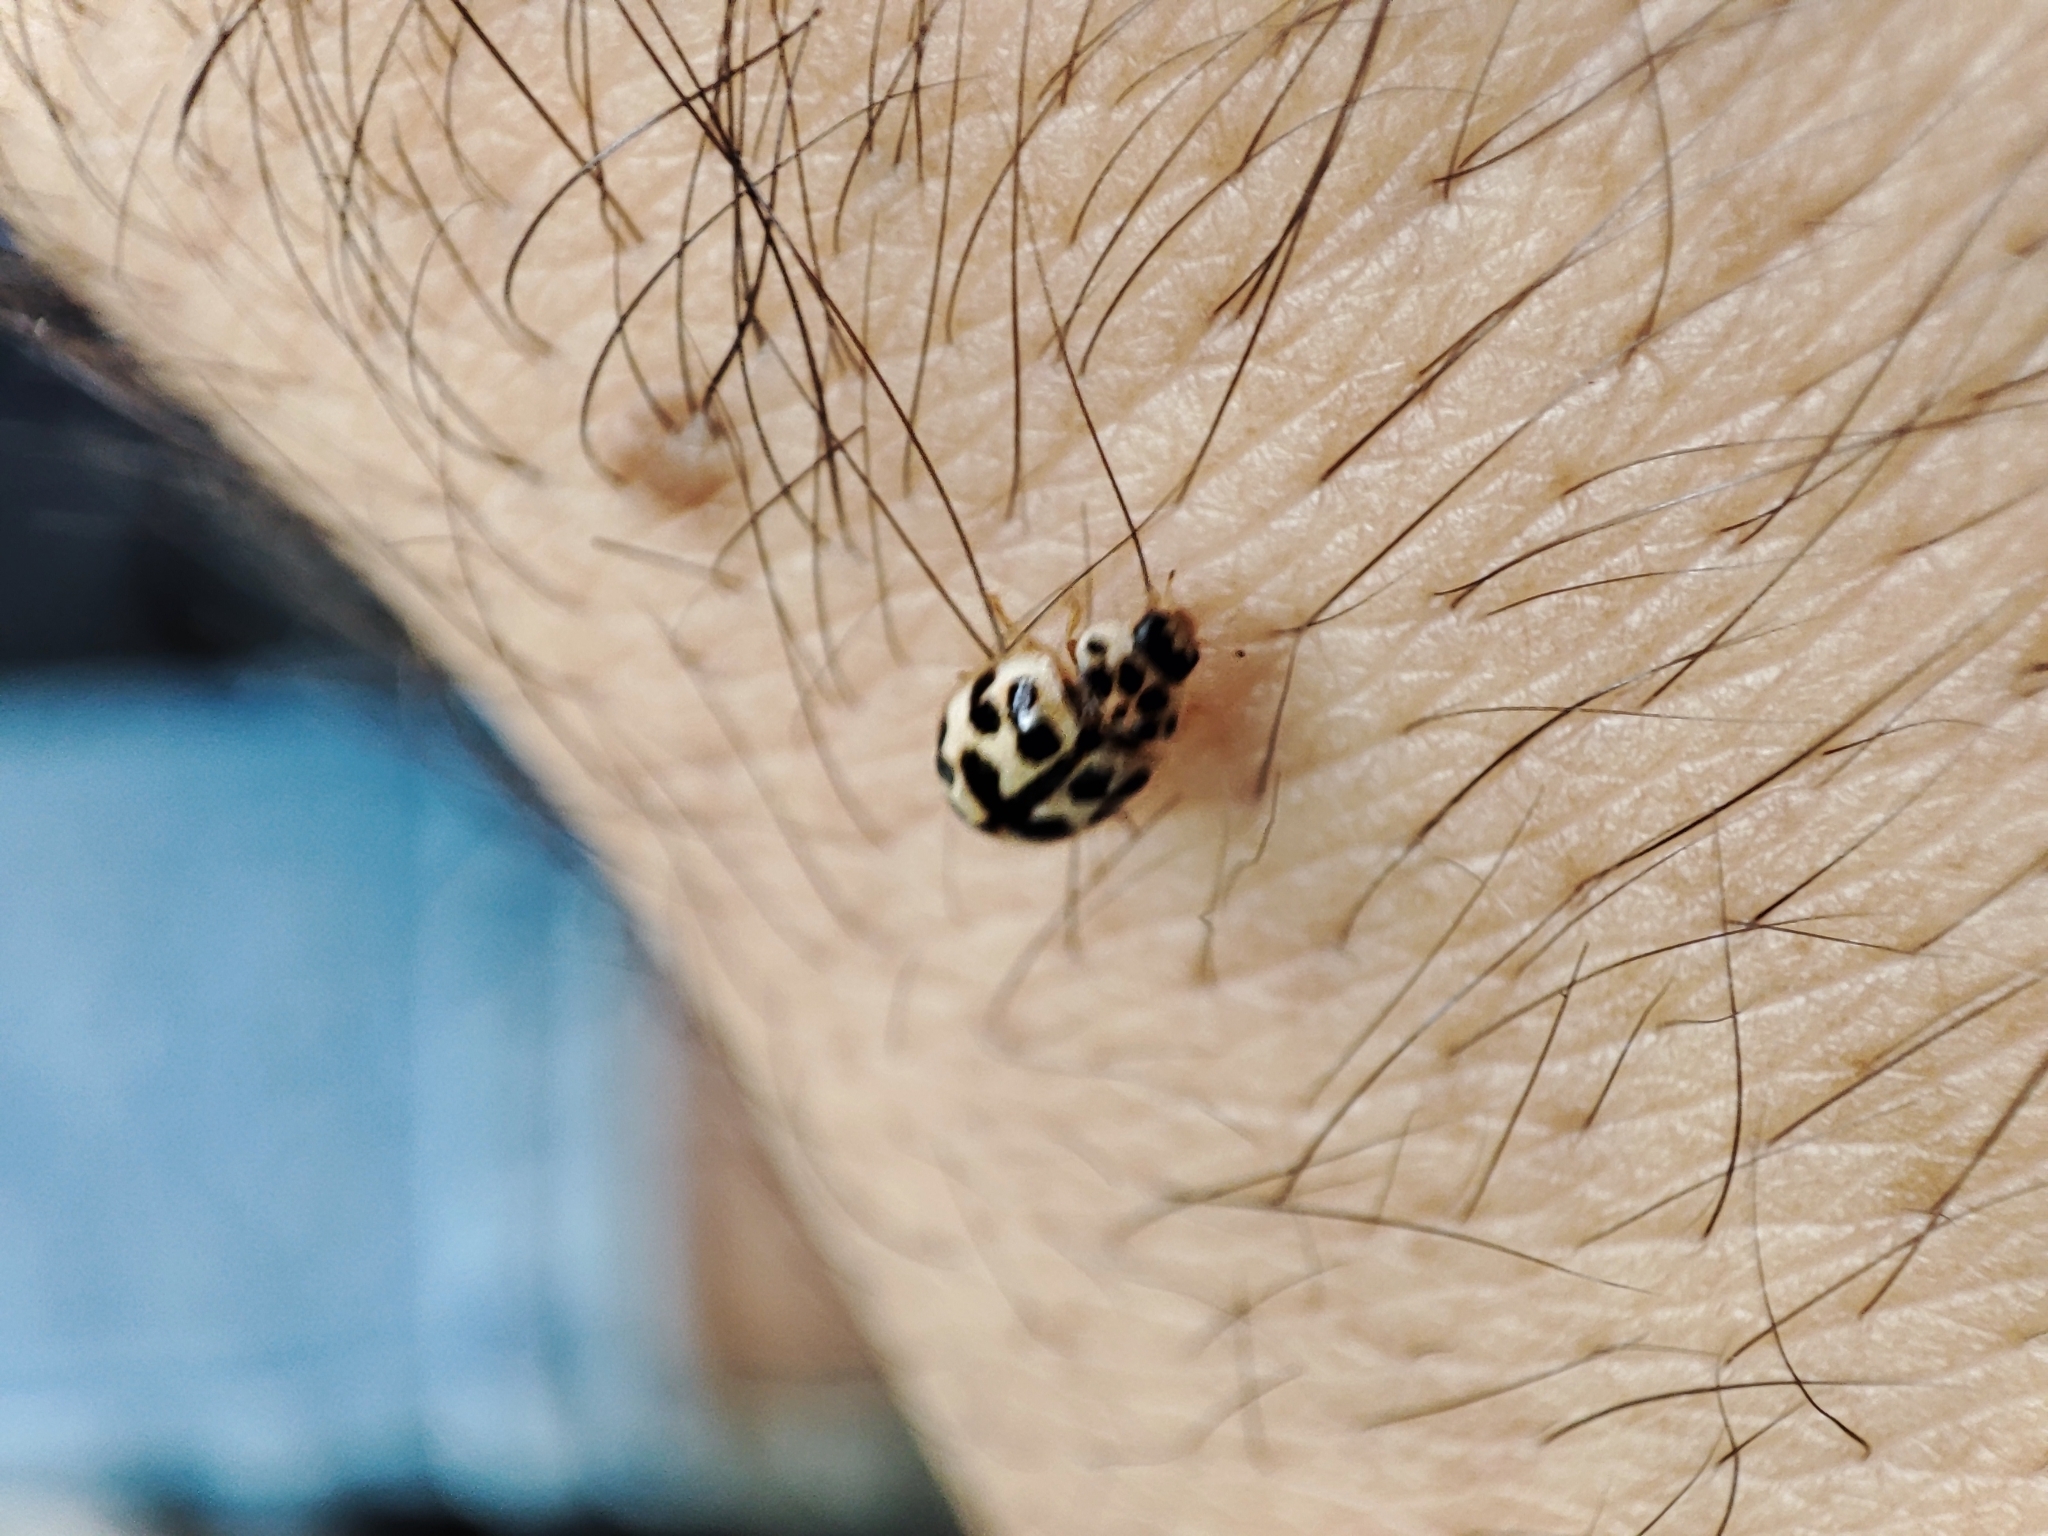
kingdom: Animalia
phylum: Arthropoda
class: Insecta
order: Coleoptera
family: Coccinellidae
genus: Oenopia
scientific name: Oenopia conglobata
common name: Ladybird beetle
